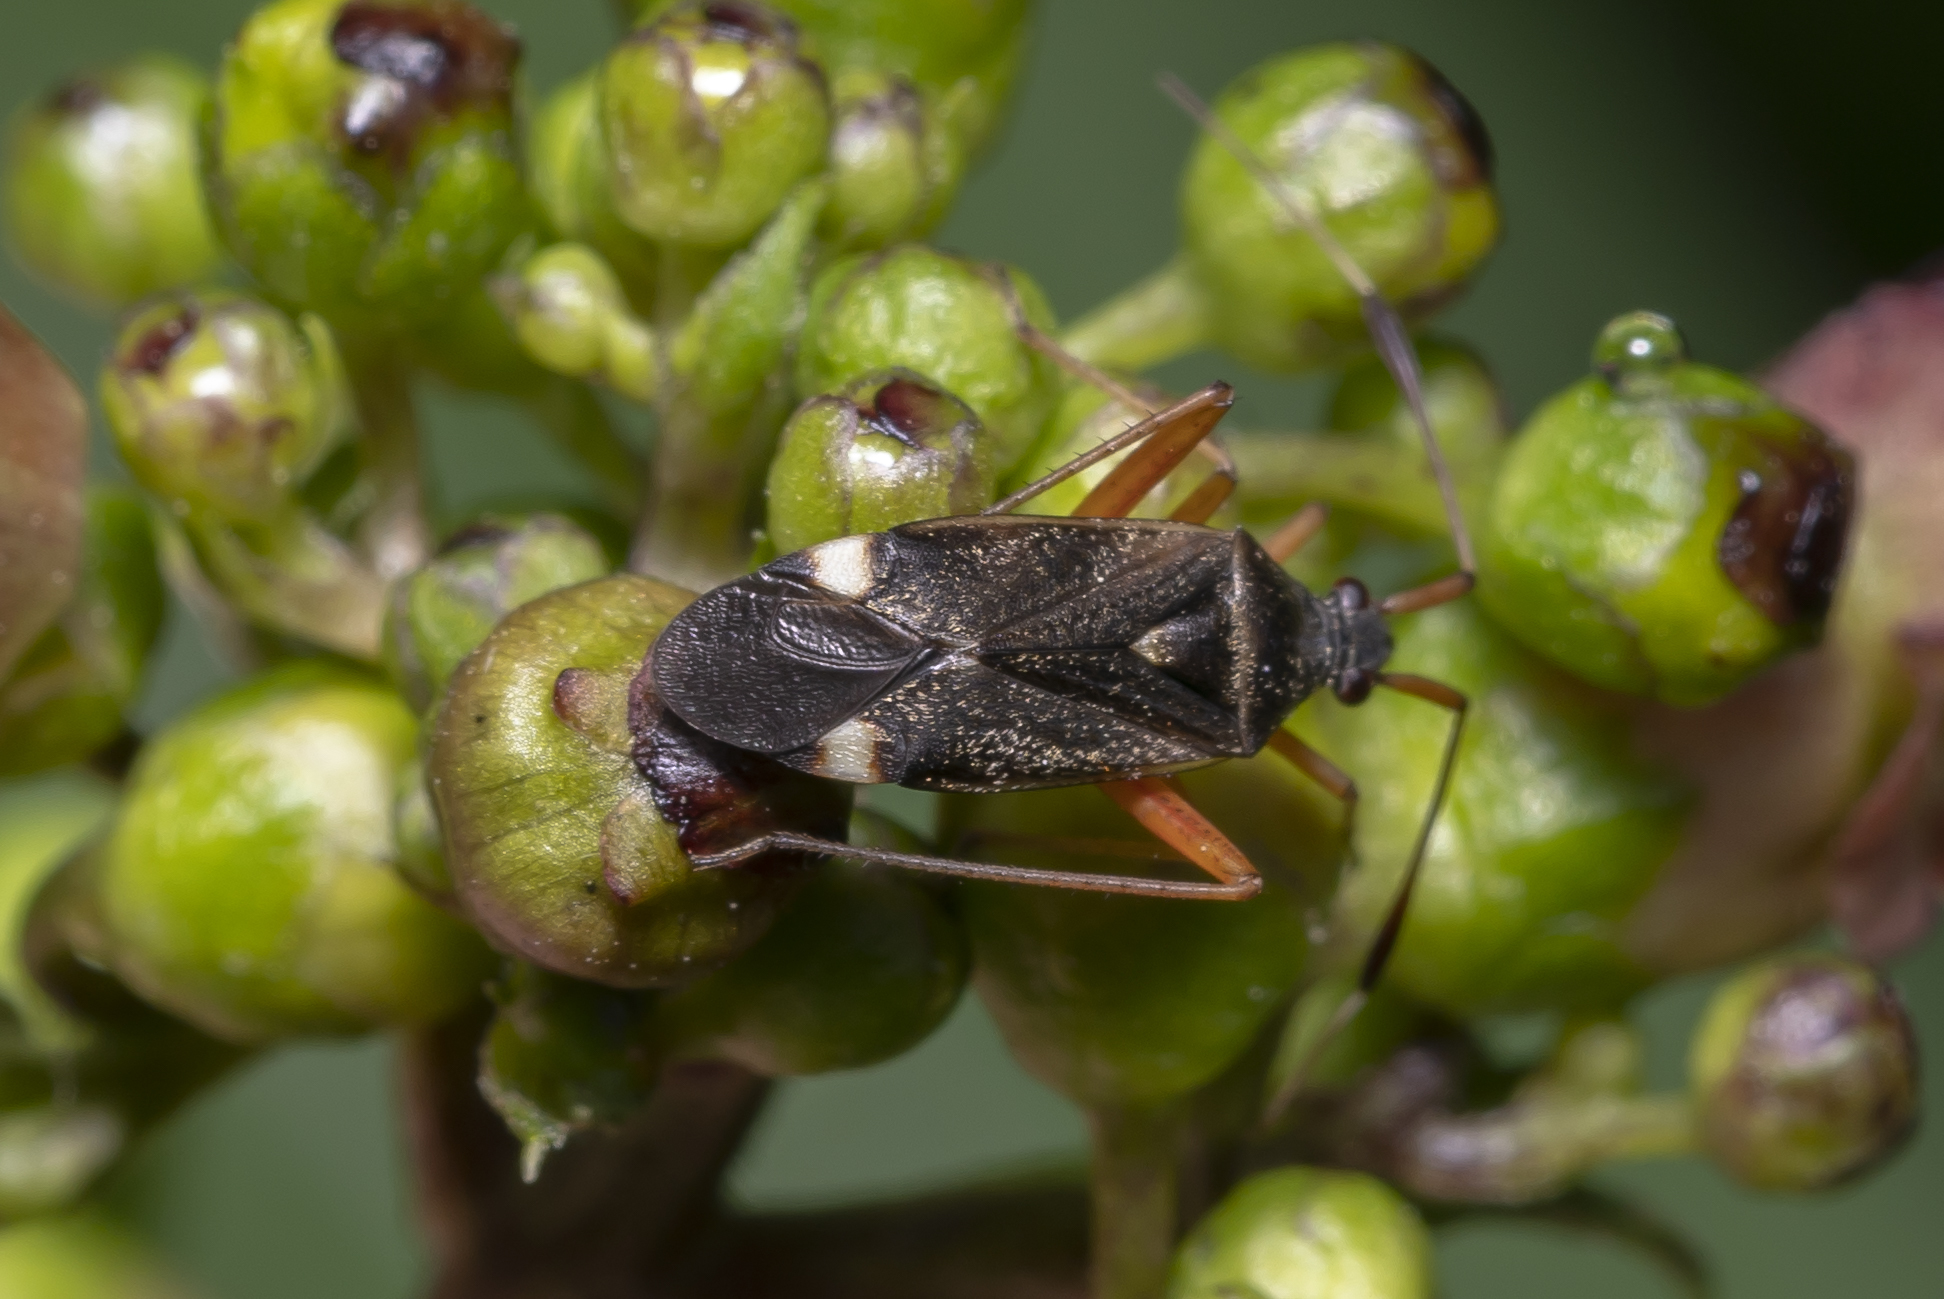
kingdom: Animalia
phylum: Arthropoda
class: Insecta
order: Hemiptera
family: Miridae
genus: Closterotomus
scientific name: Closterotomus biclavatus
